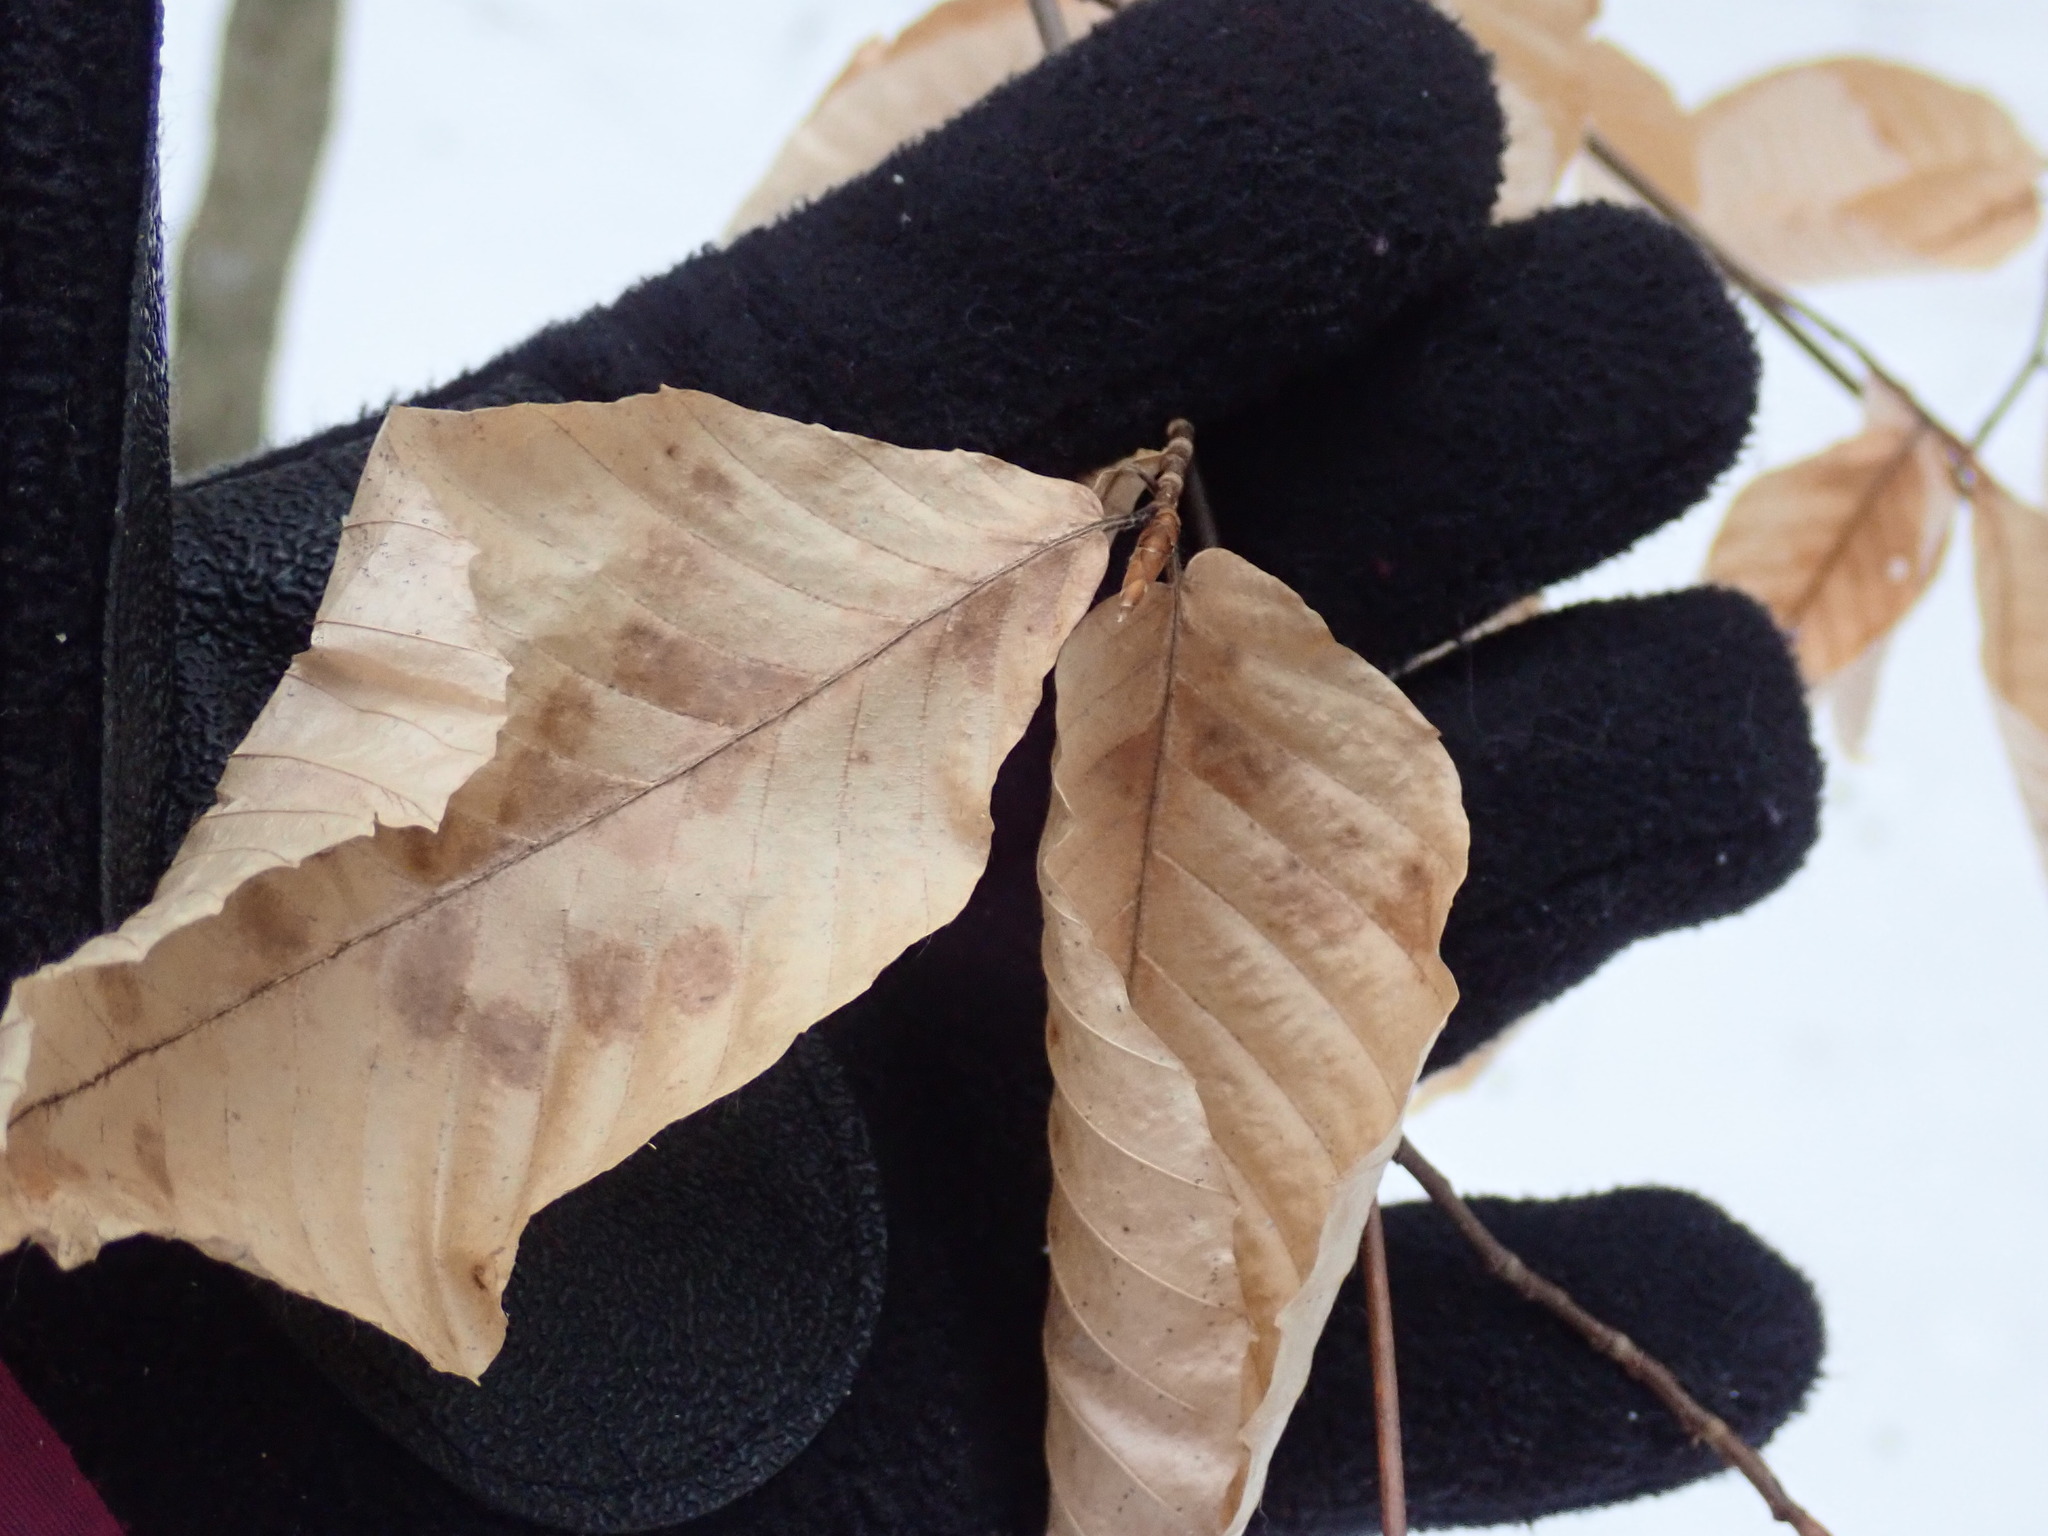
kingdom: Plantae
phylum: Tracheophyta
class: Magnoliopsida
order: Fagales
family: Fagaceae
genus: Fagus
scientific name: Fagus grandifolia
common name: American beech
